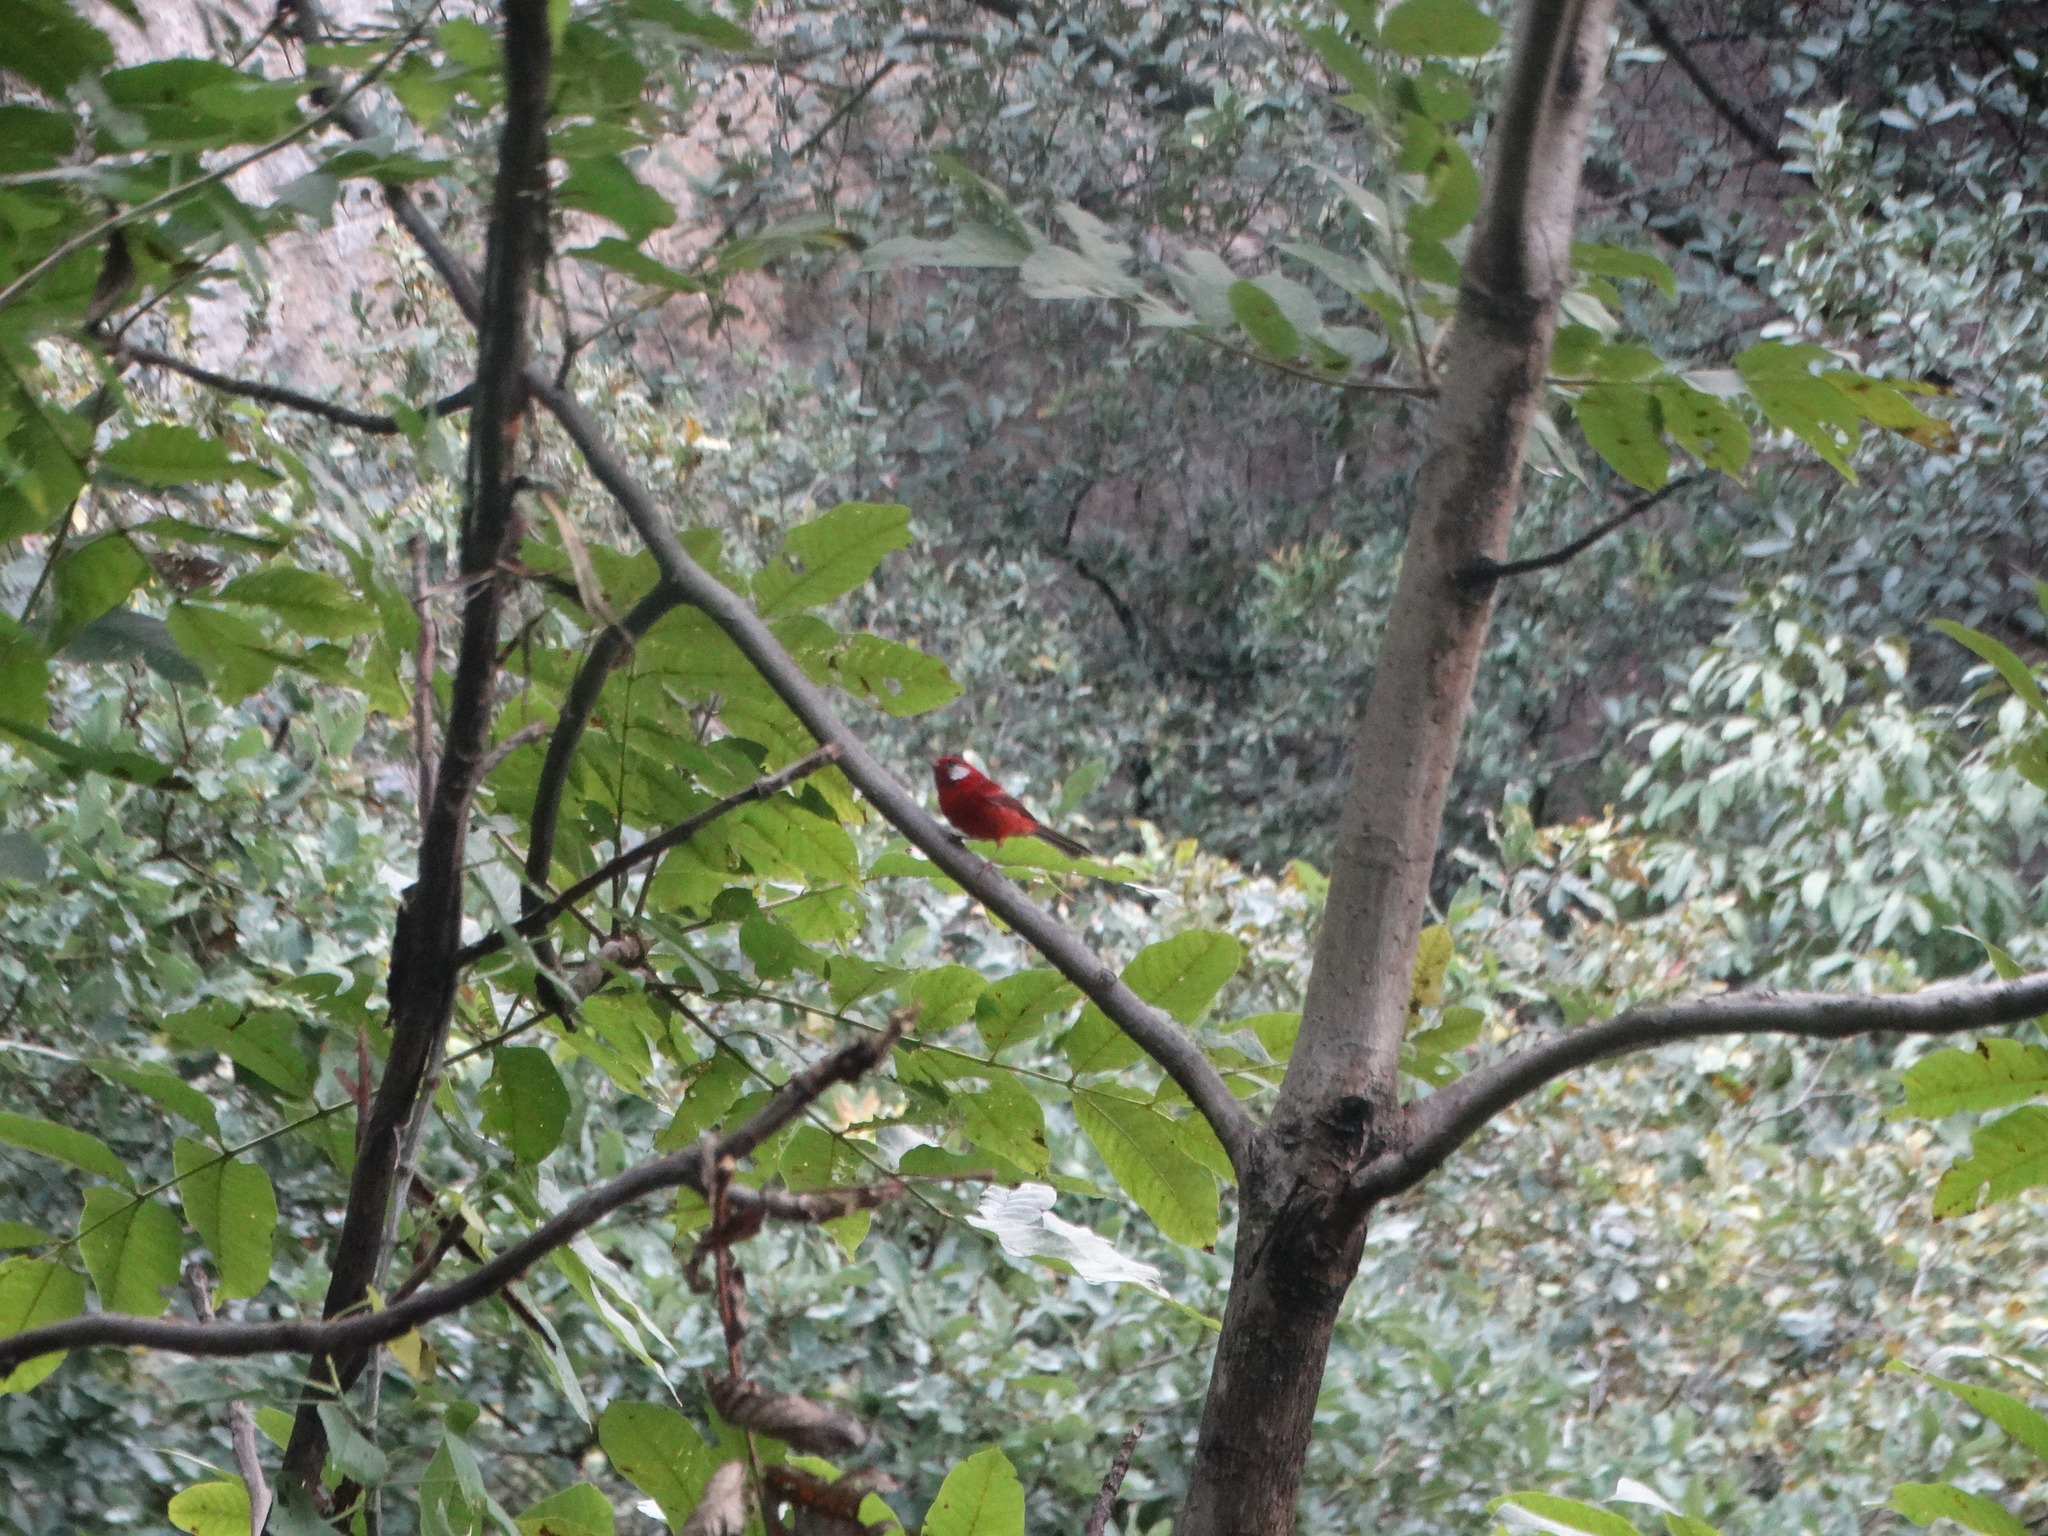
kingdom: Animalia
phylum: Chordata
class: Aves
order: Passeriformes
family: Parulidae
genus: Cardellina
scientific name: Cardellina rubra
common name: Red warbler
